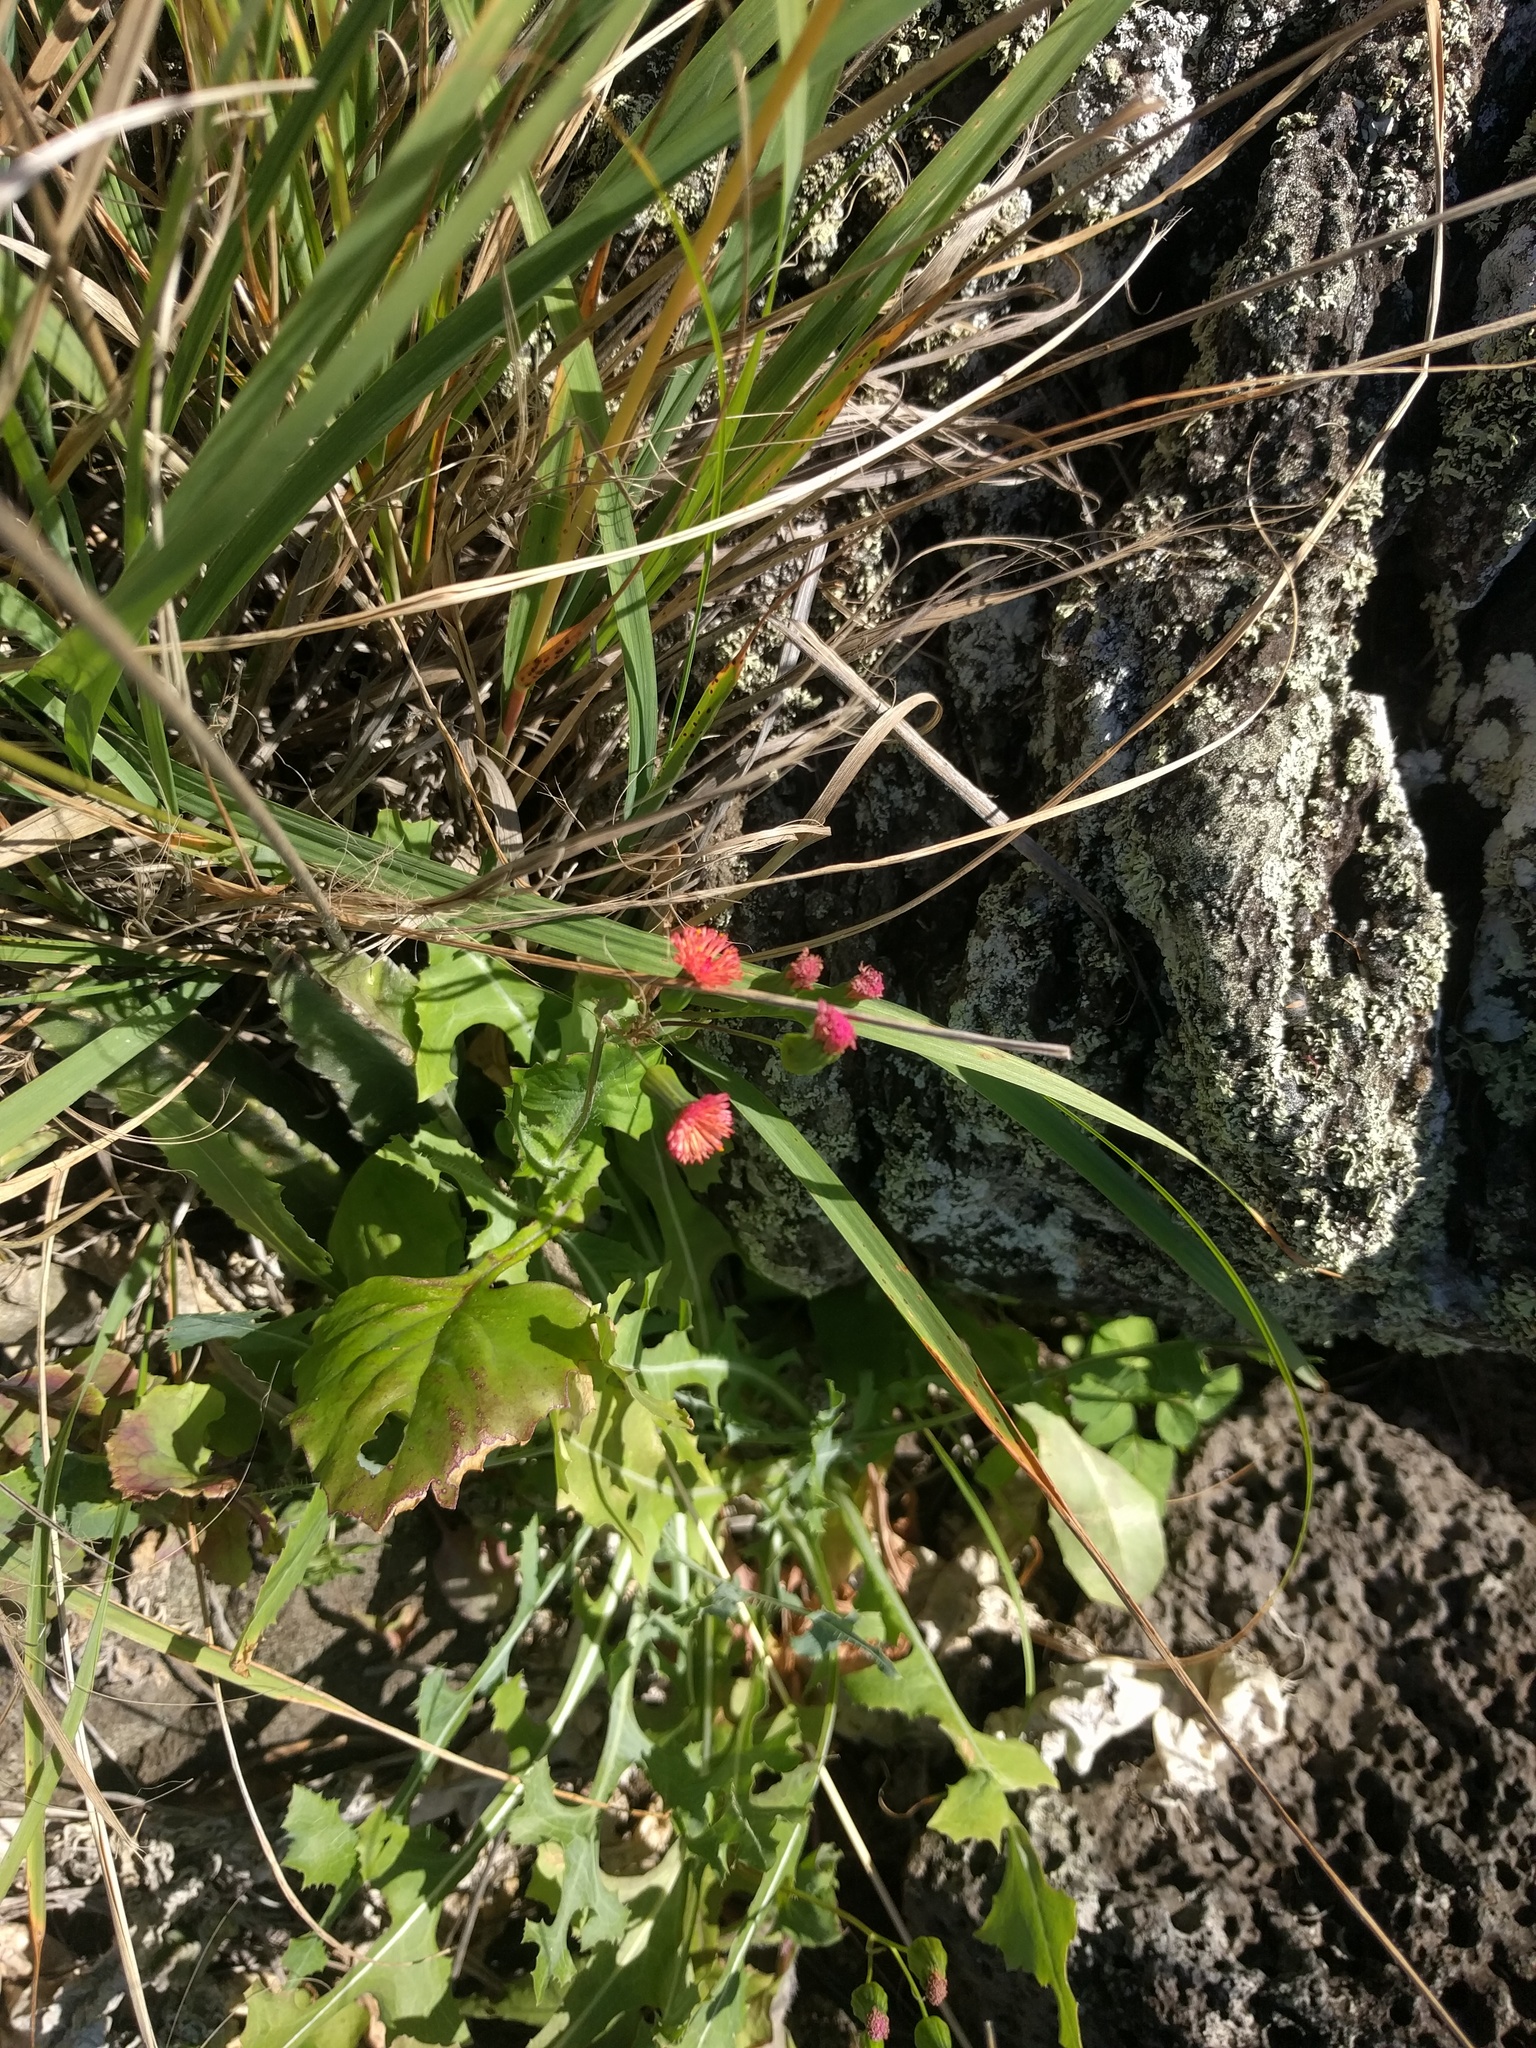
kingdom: Plantae
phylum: Tracheophyta
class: Magnoliopsida
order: Asterales
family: Asteraceae
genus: Emilia
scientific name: Emilia fosbergii
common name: Florida tasselflower
